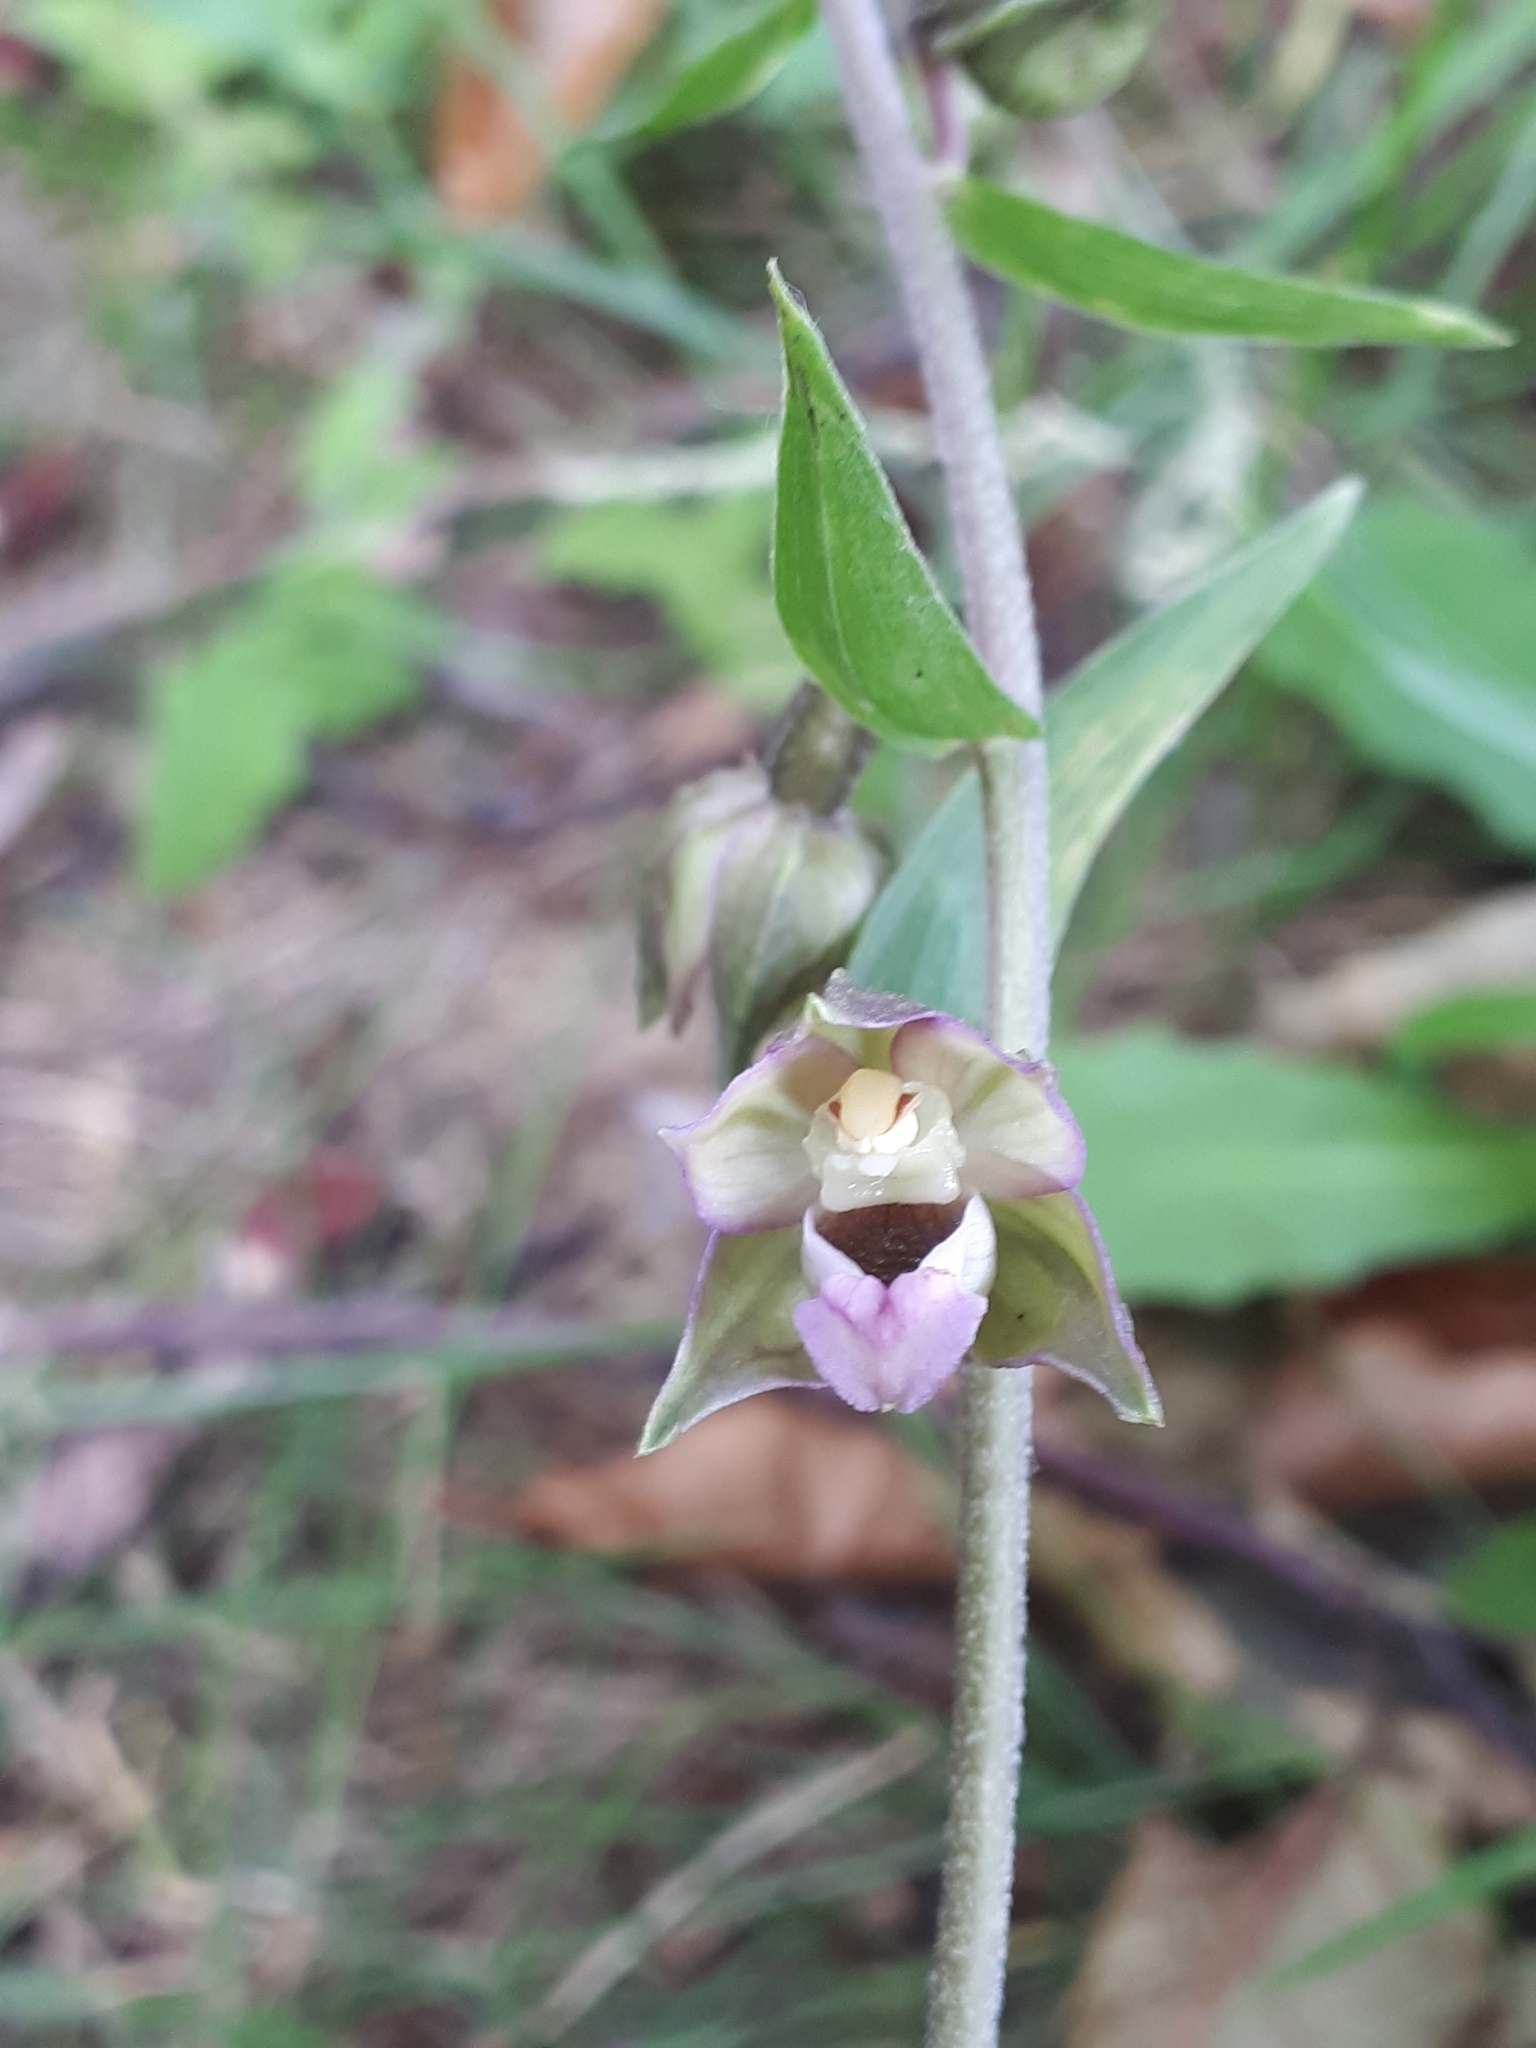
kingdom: Plantae
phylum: Tracheophyta
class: Liliopsida
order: Asparagales
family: Orchidaceae
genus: Epipactis
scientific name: Epipactis helleborine
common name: Broad-leaved helleborine
